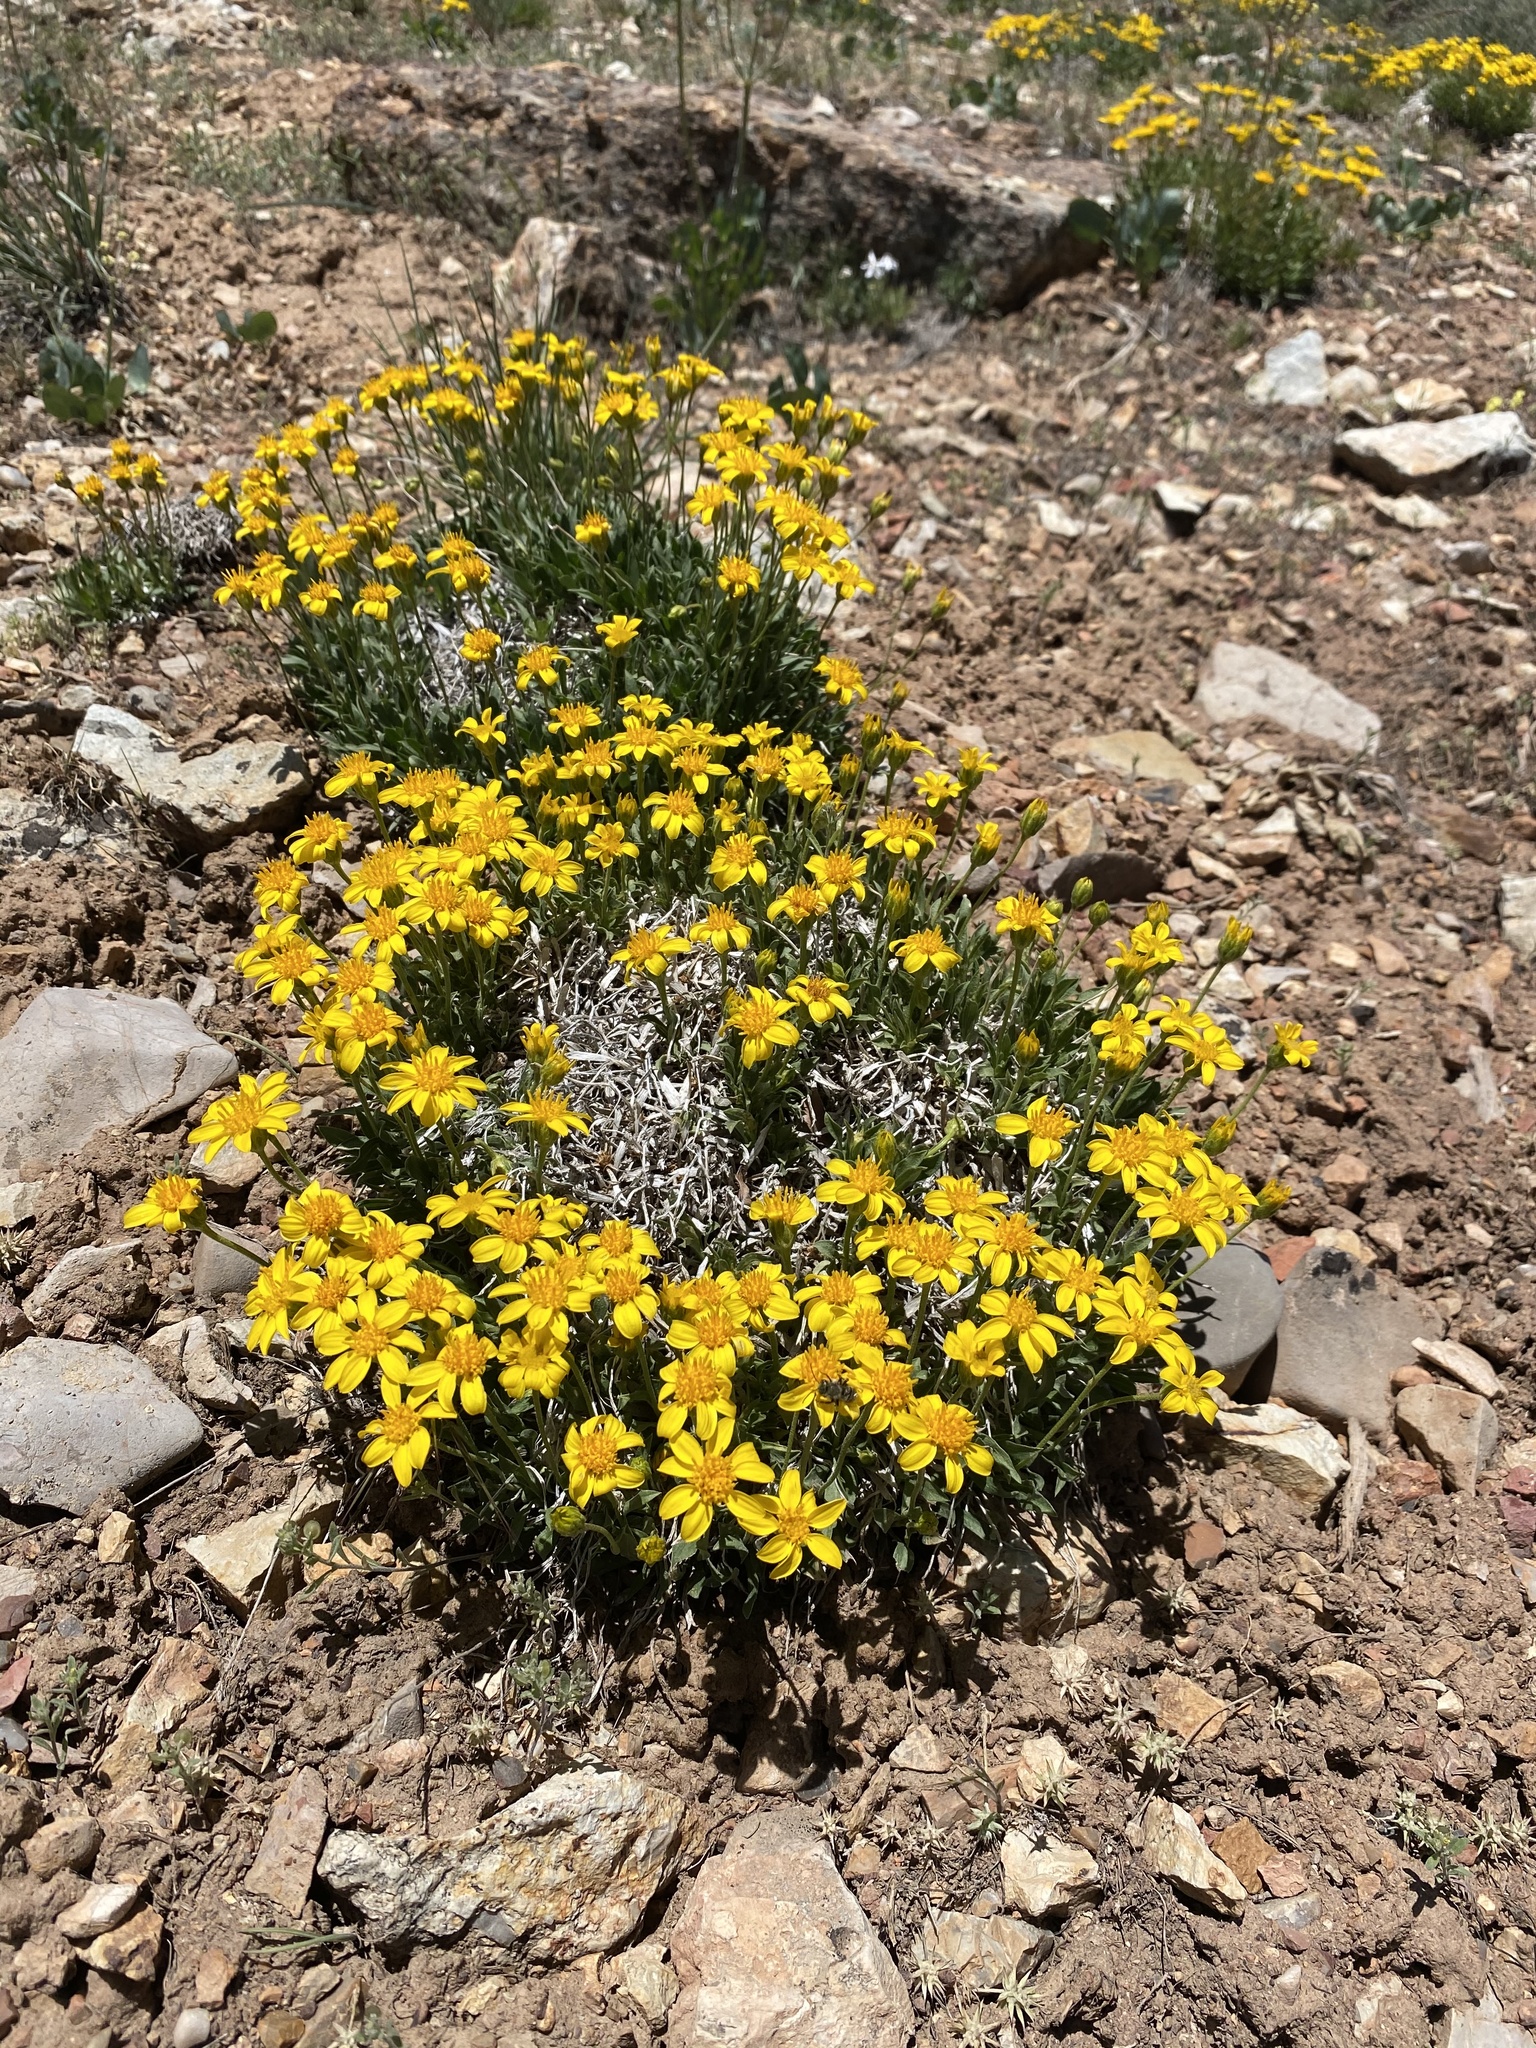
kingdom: Plantae
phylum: Tracheophyta
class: Magnoliopsida
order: Asterales
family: Asteraceae
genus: Stenotus
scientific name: Stenotus acaulis
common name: Stemless goldenweed
